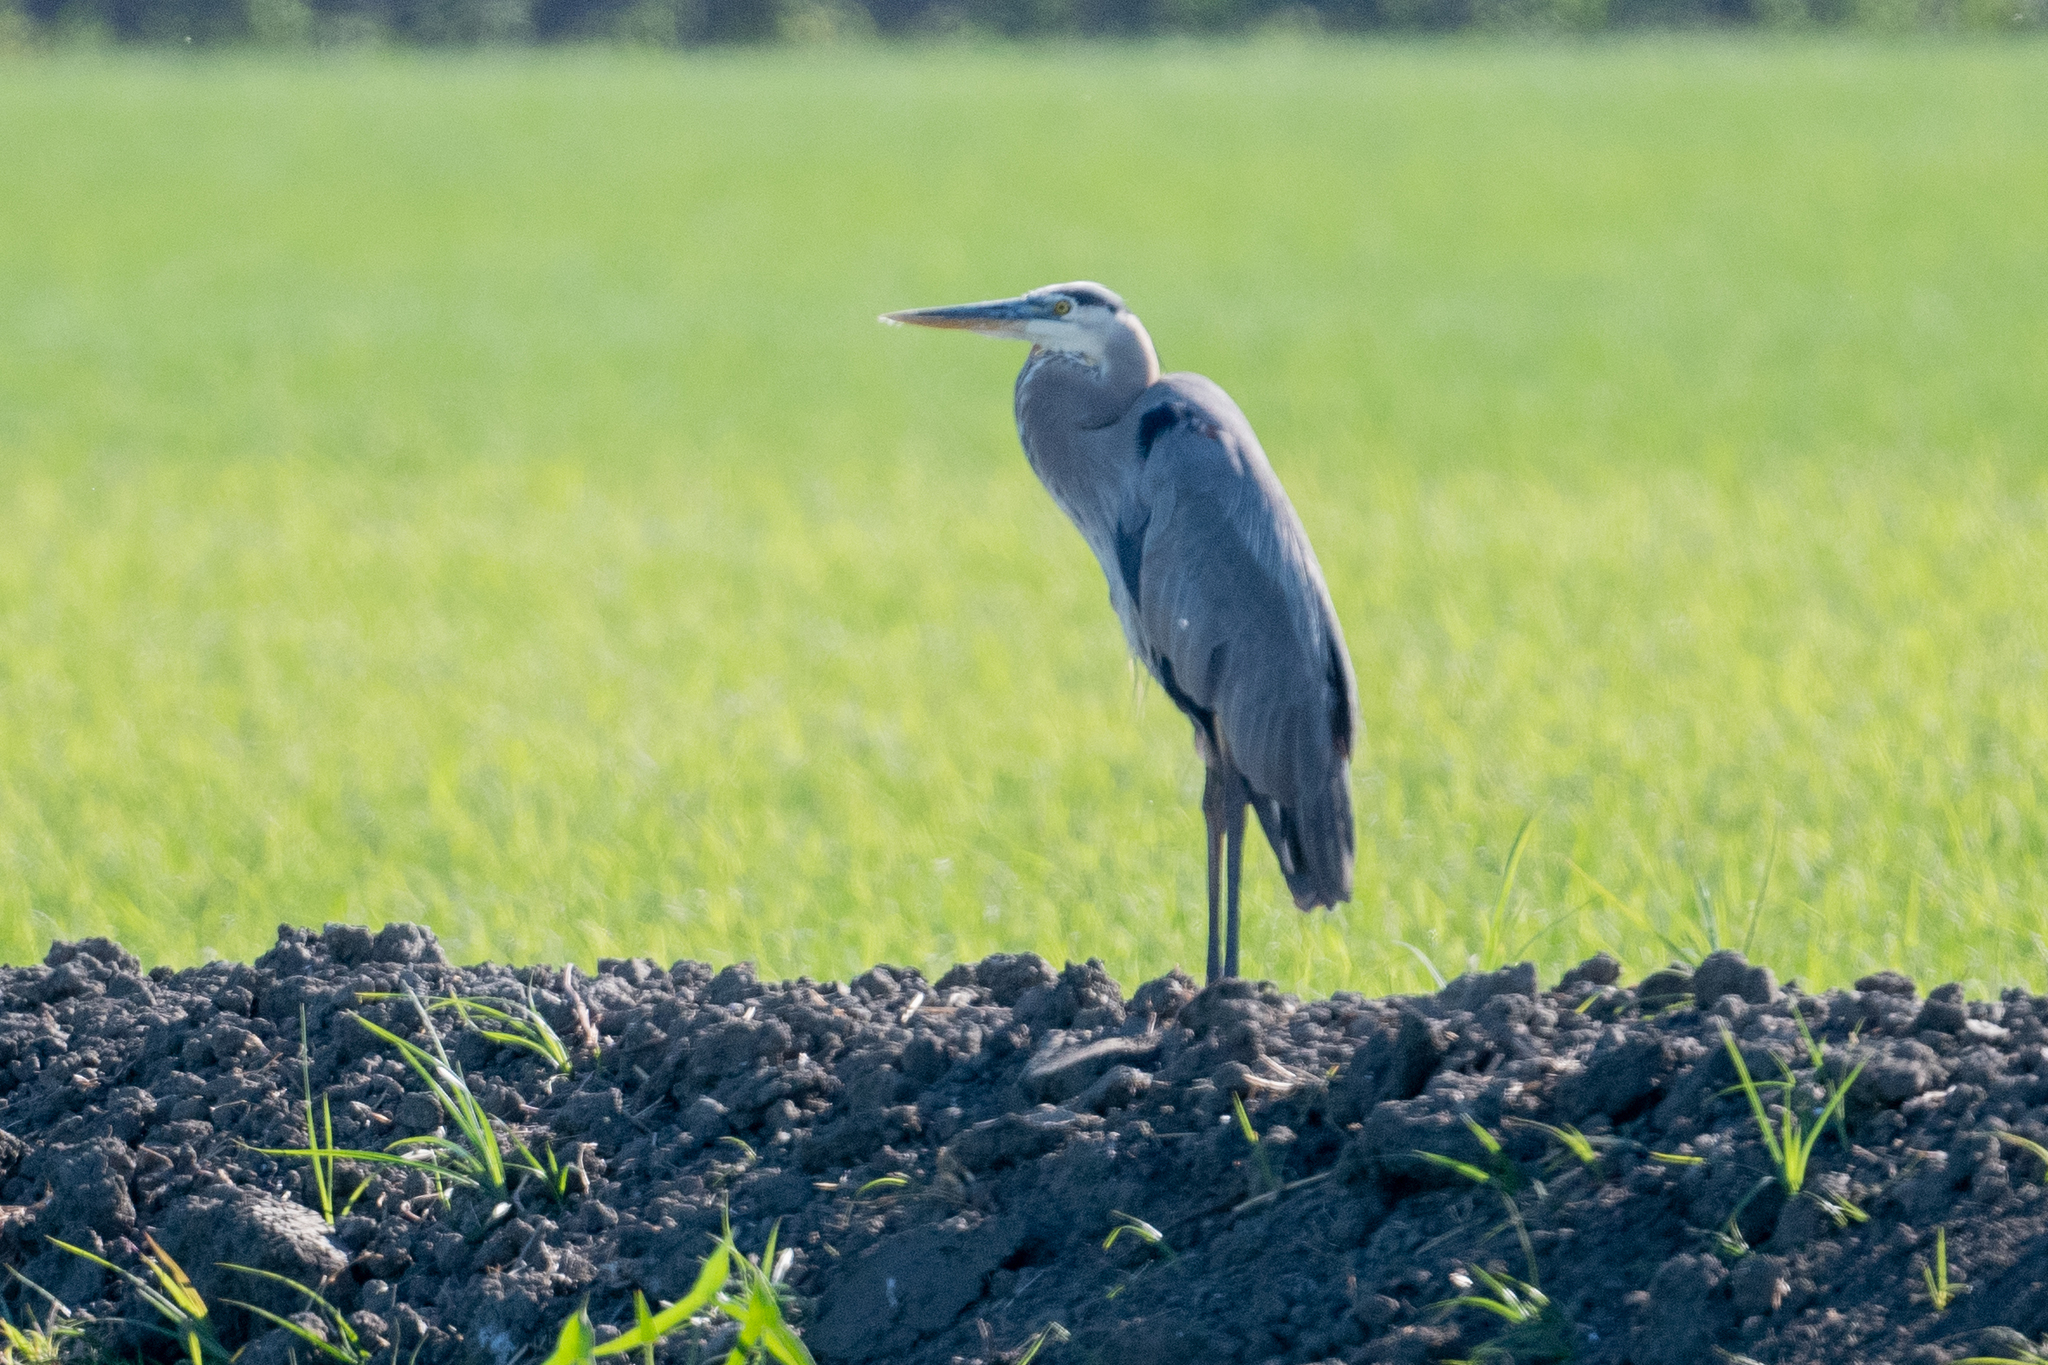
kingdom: Animalia
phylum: Chordata
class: Aves
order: Pelecaniformes
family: Ardeidae
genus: Ardea
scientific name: Ardea herodias
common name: Great blue heron
